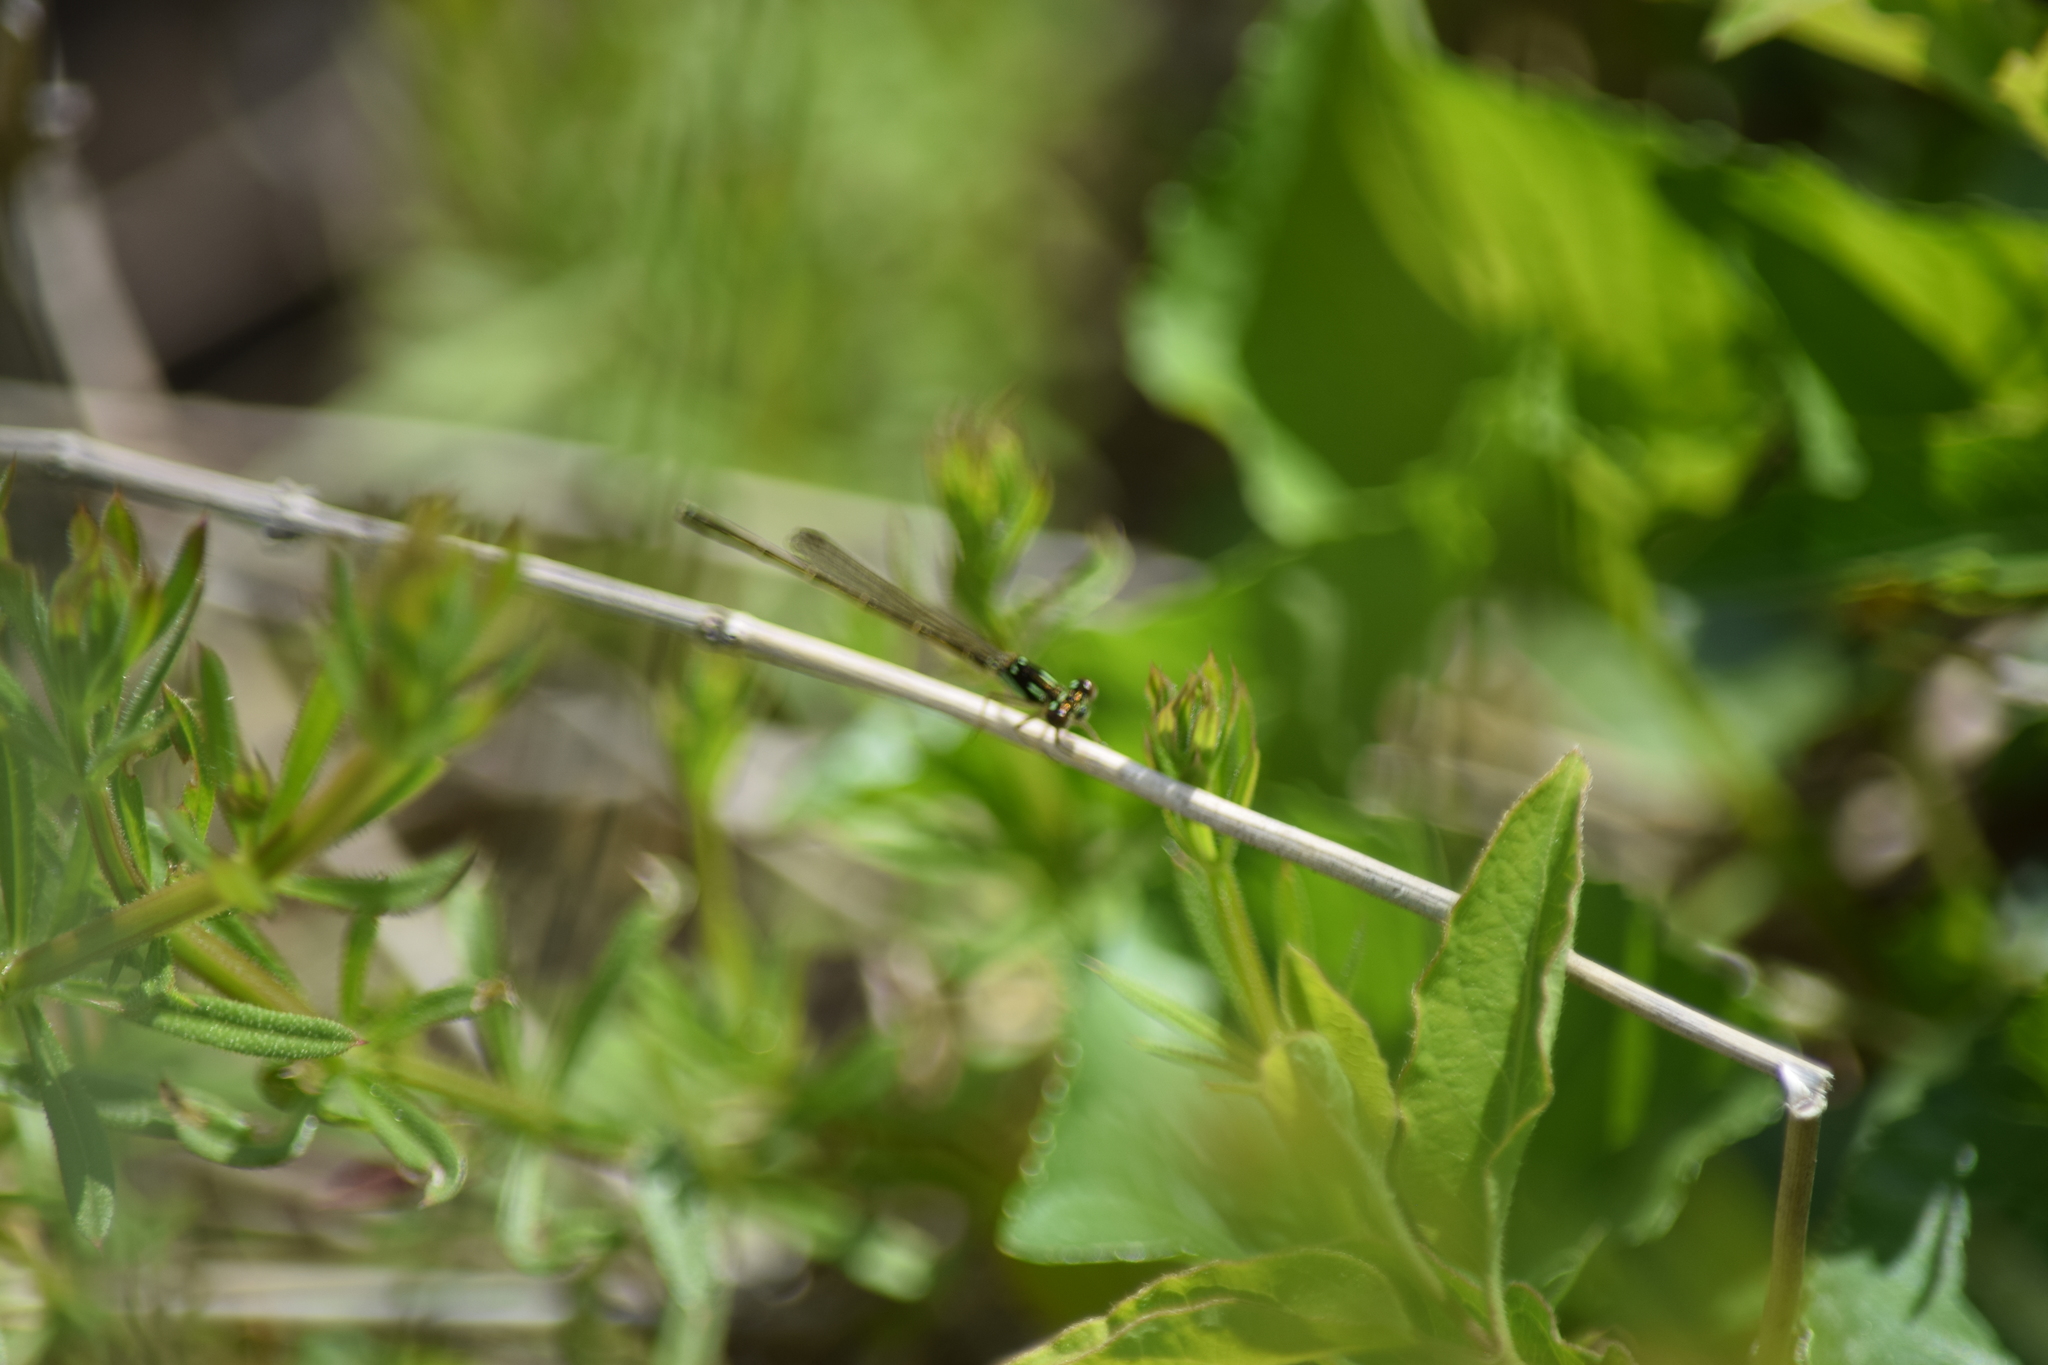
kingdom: Animalia
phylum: Arthropoda
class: Insecta
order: Odonata
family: Coenagrionidae
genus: Ischnura
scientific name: Ischnura posita
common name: Fragile forktail
